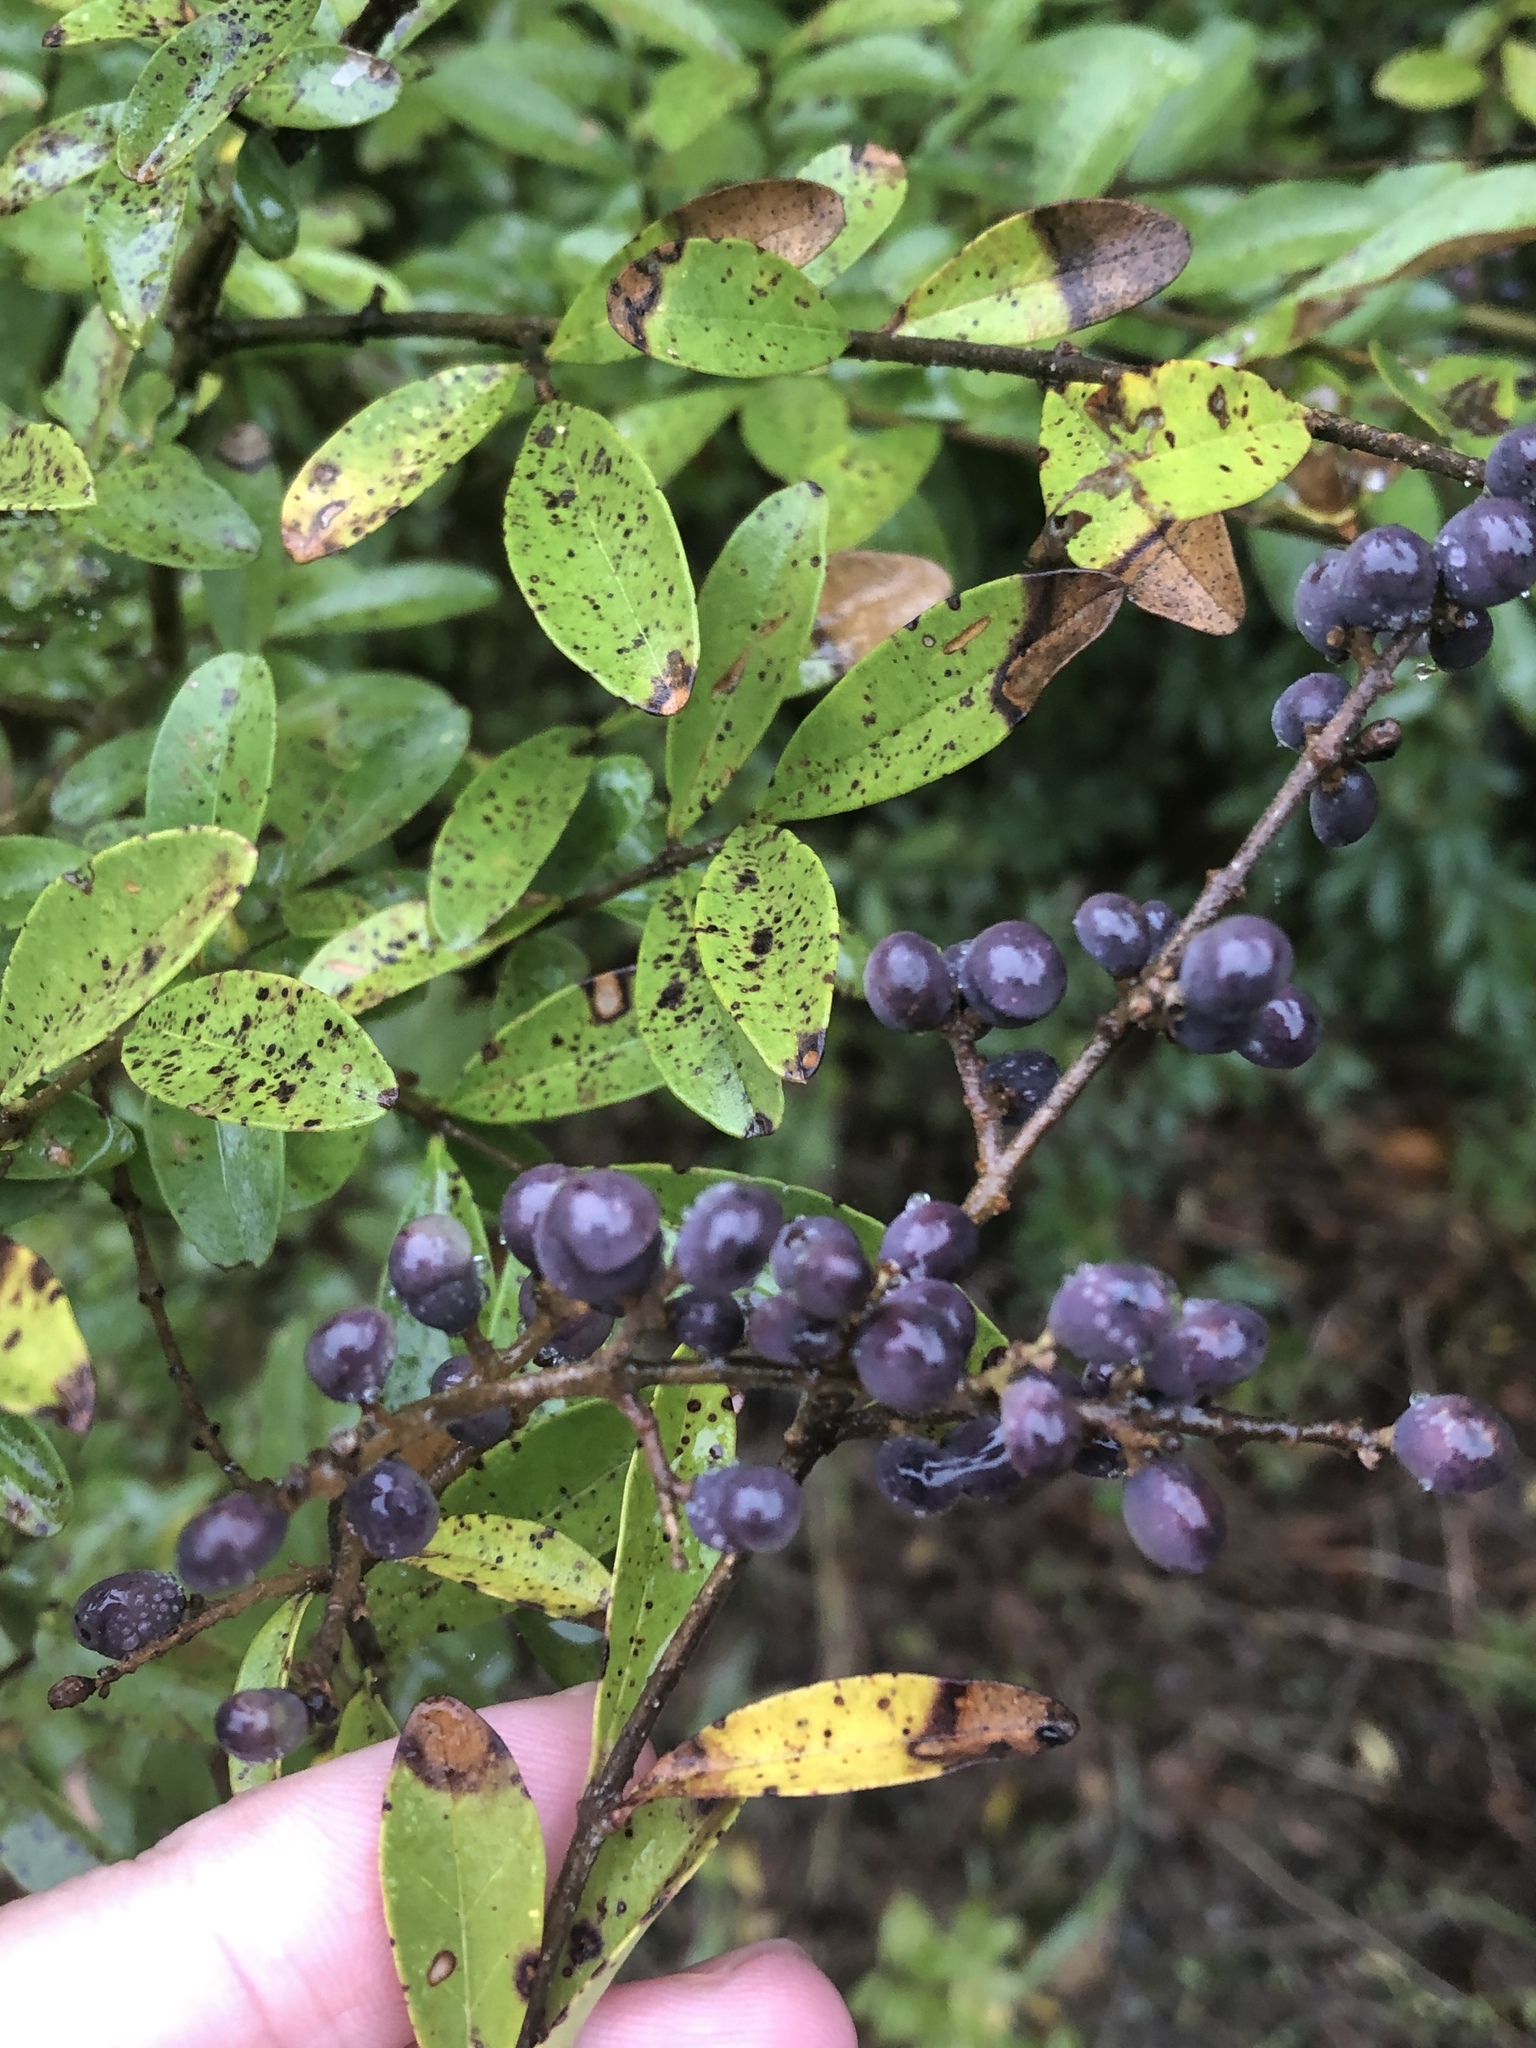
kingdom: Plantae
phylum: Tracheophyta
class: Magnoliopsida
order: Lamiales
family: Oleaceae
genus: Ligustrum
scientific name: Ligustrum quihoui
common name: Waxyleaf privet
